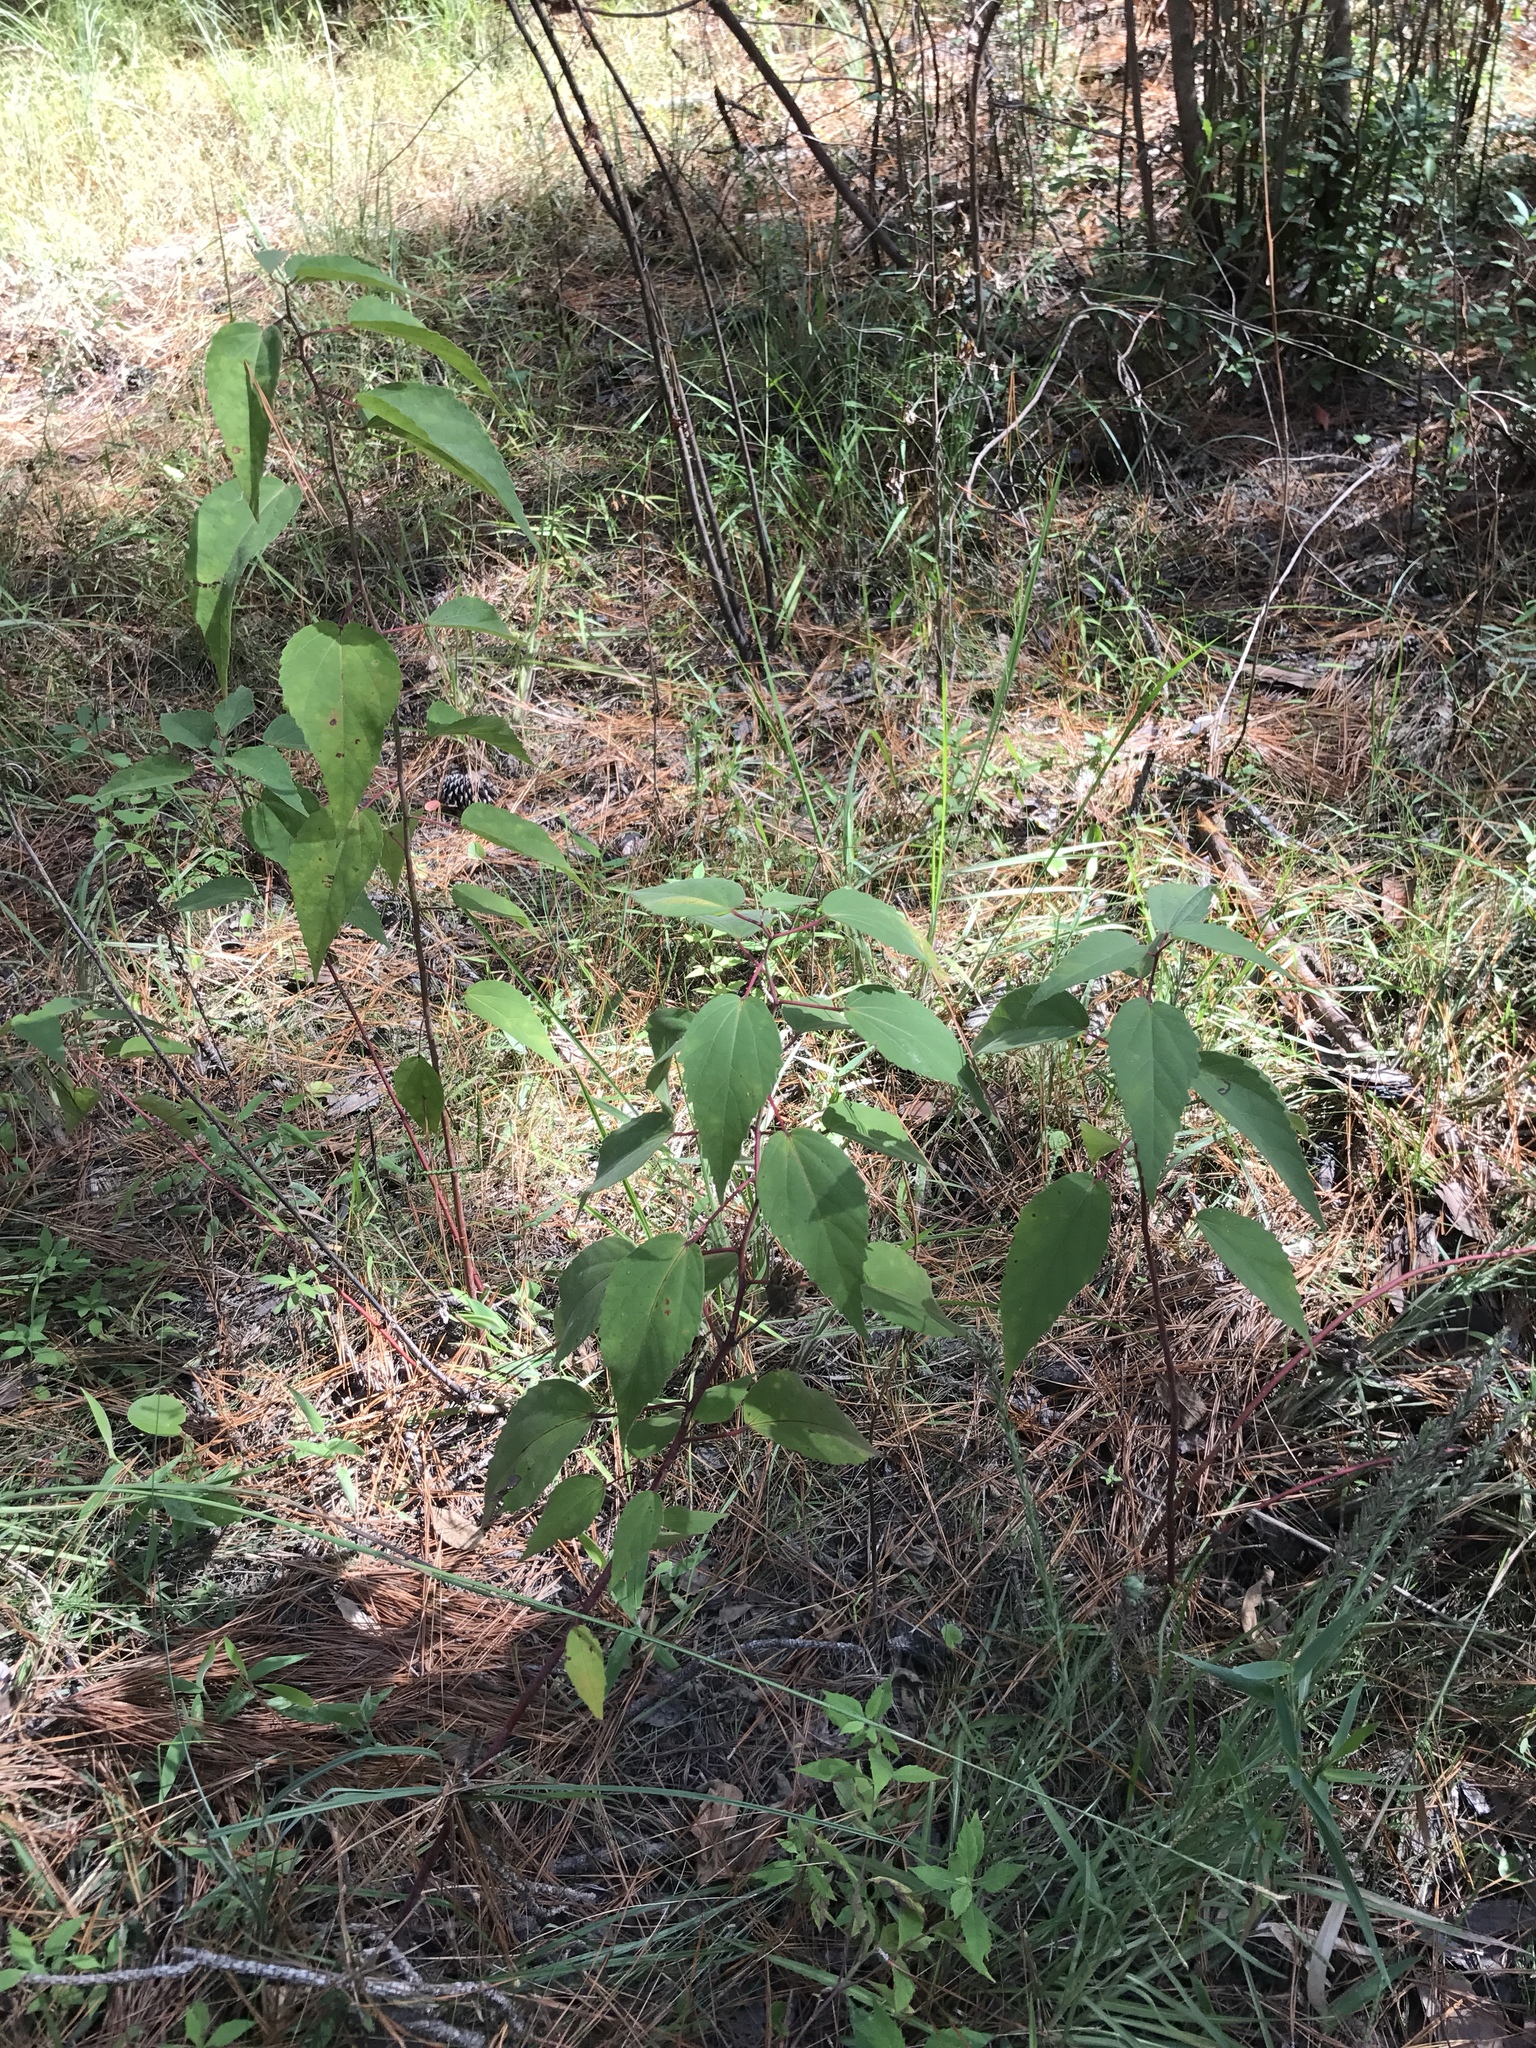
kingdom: Plantae
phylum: Tracheophyta
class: Magnoliopsida
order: Malvales
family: Malvaceae
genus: Hibiscus
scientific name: Hibiscus moscheutos
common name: Common rose-mallow
